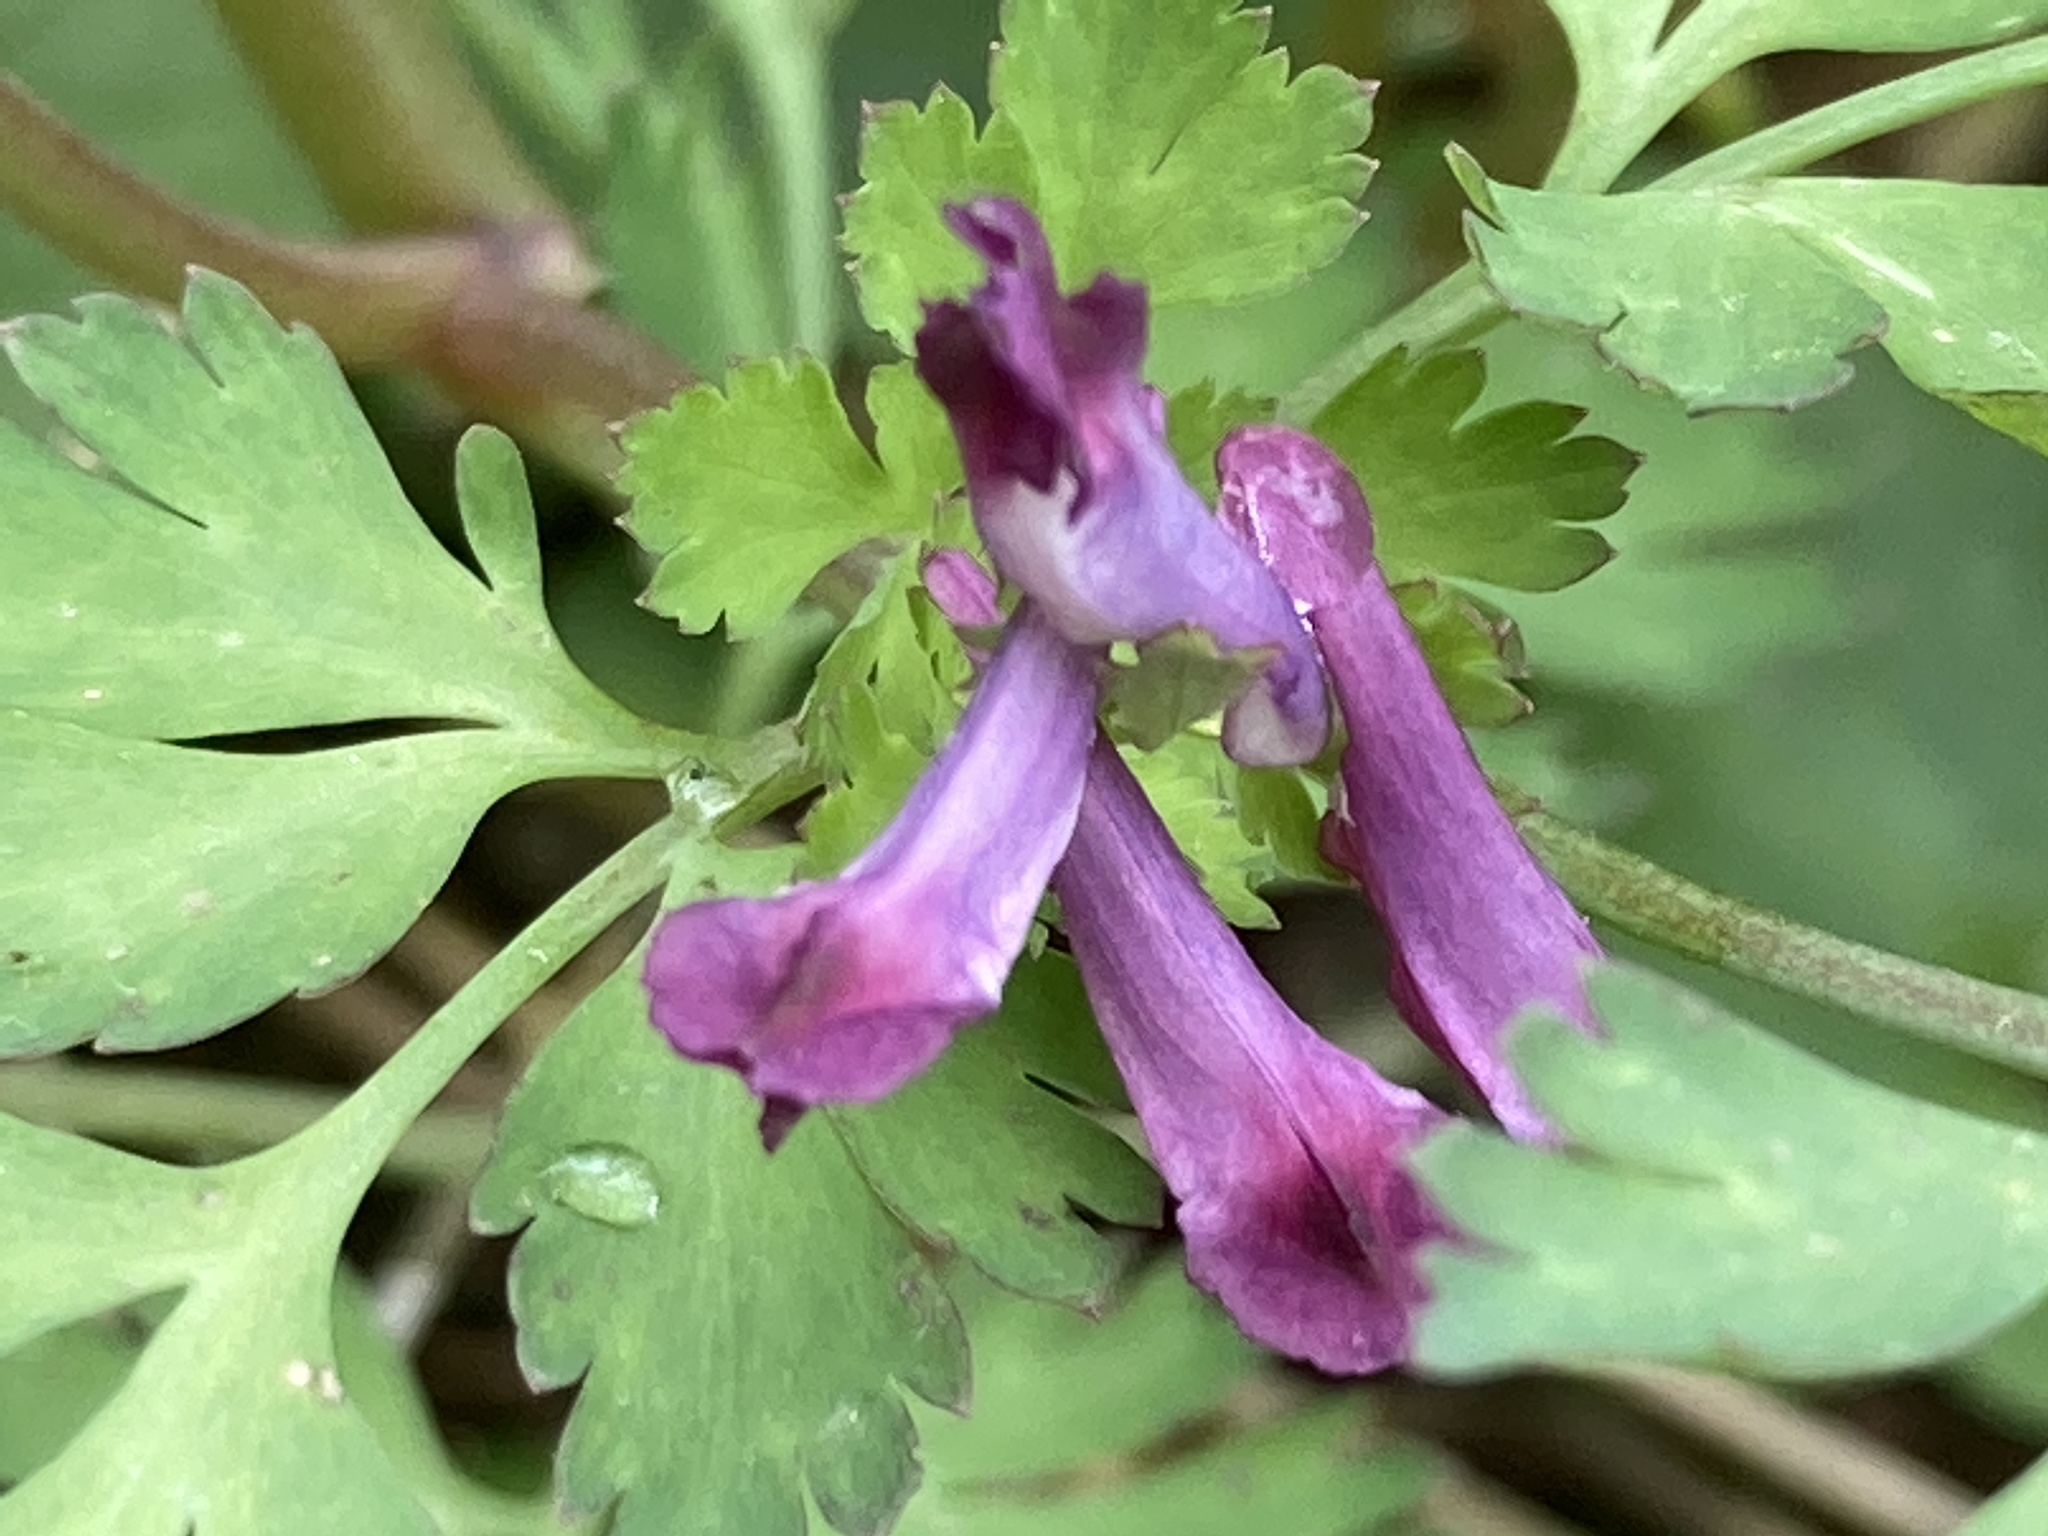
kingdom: Plantae
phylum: Tracheophyta
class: Magnoliopsida
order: Ranunculales
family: Papaveraceae
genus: Corydalis
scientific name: Corydalis incisa
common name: Incised fumewort
